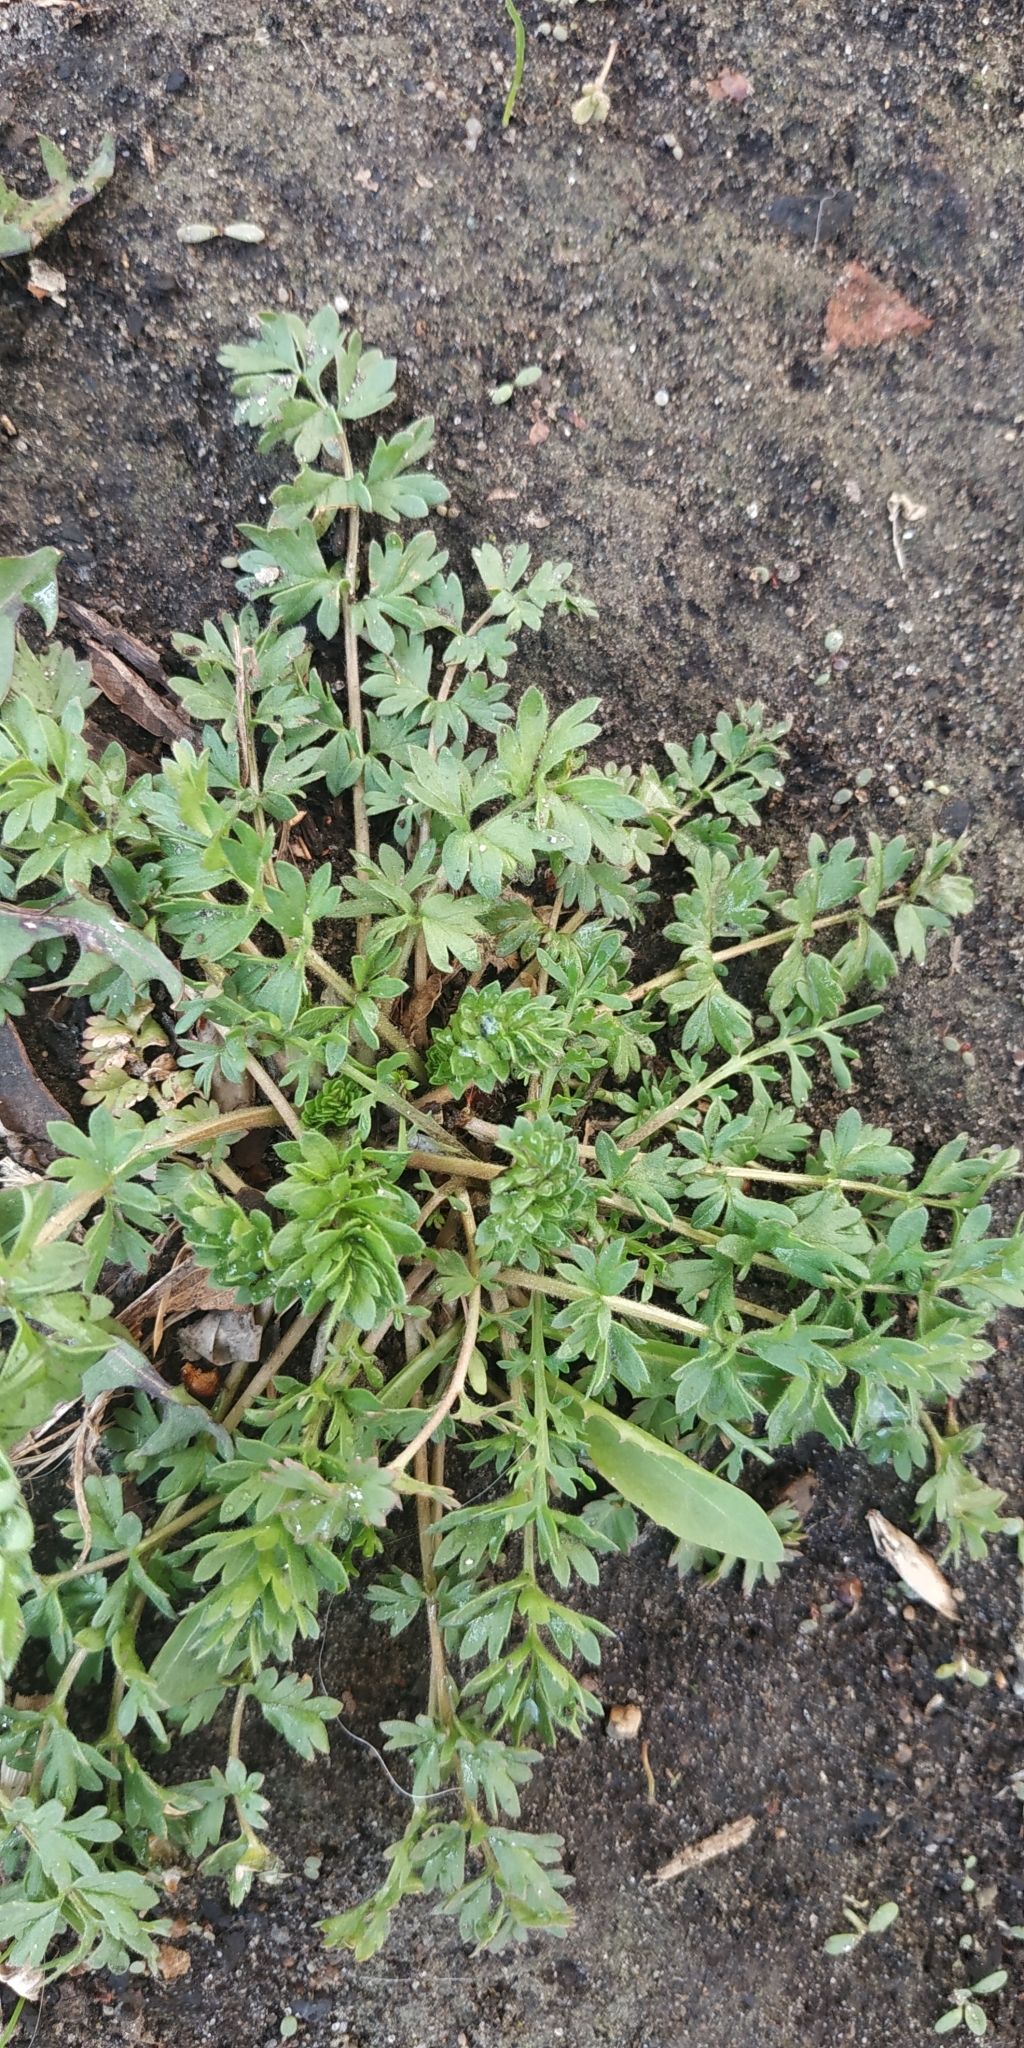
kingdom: Plantae
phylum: Tracheophyta
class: Magnoliopsida
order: Rosales
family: Rosaceae
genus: Potentilla
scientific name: Potentilla supina
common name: Prostrate cinquefoil
